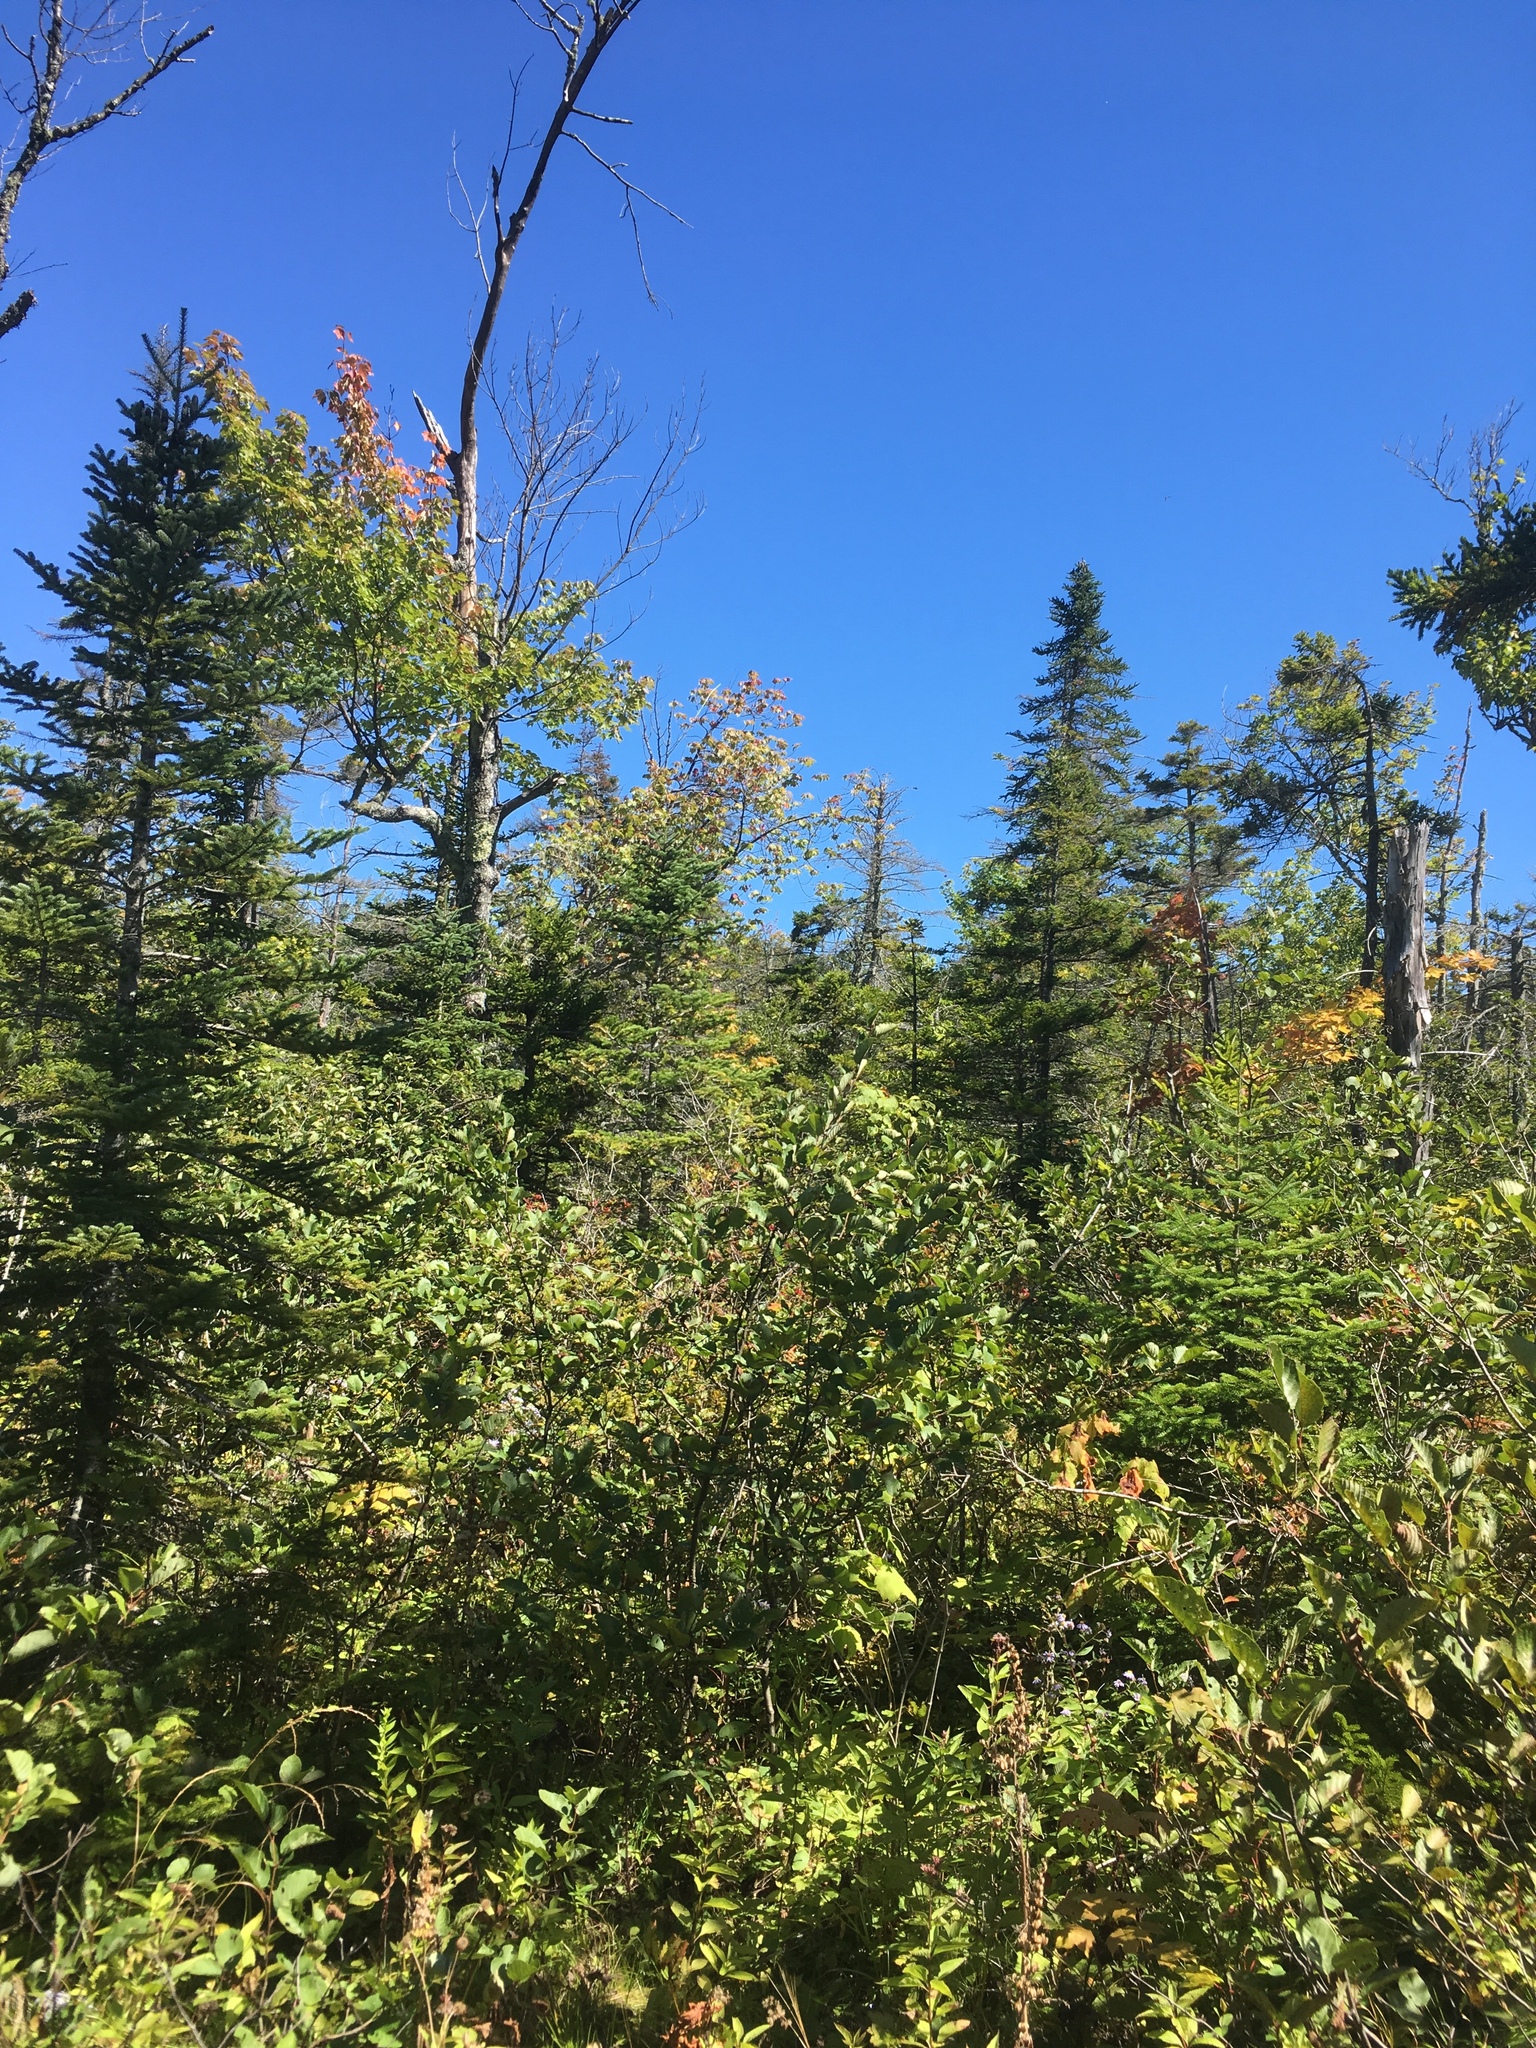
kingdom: Plantae
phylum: Tracheophyta
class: Pinopsida
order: Pinales
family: Pinaceae
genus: Abies
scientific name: Abies balsamea
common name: Balsam fir
